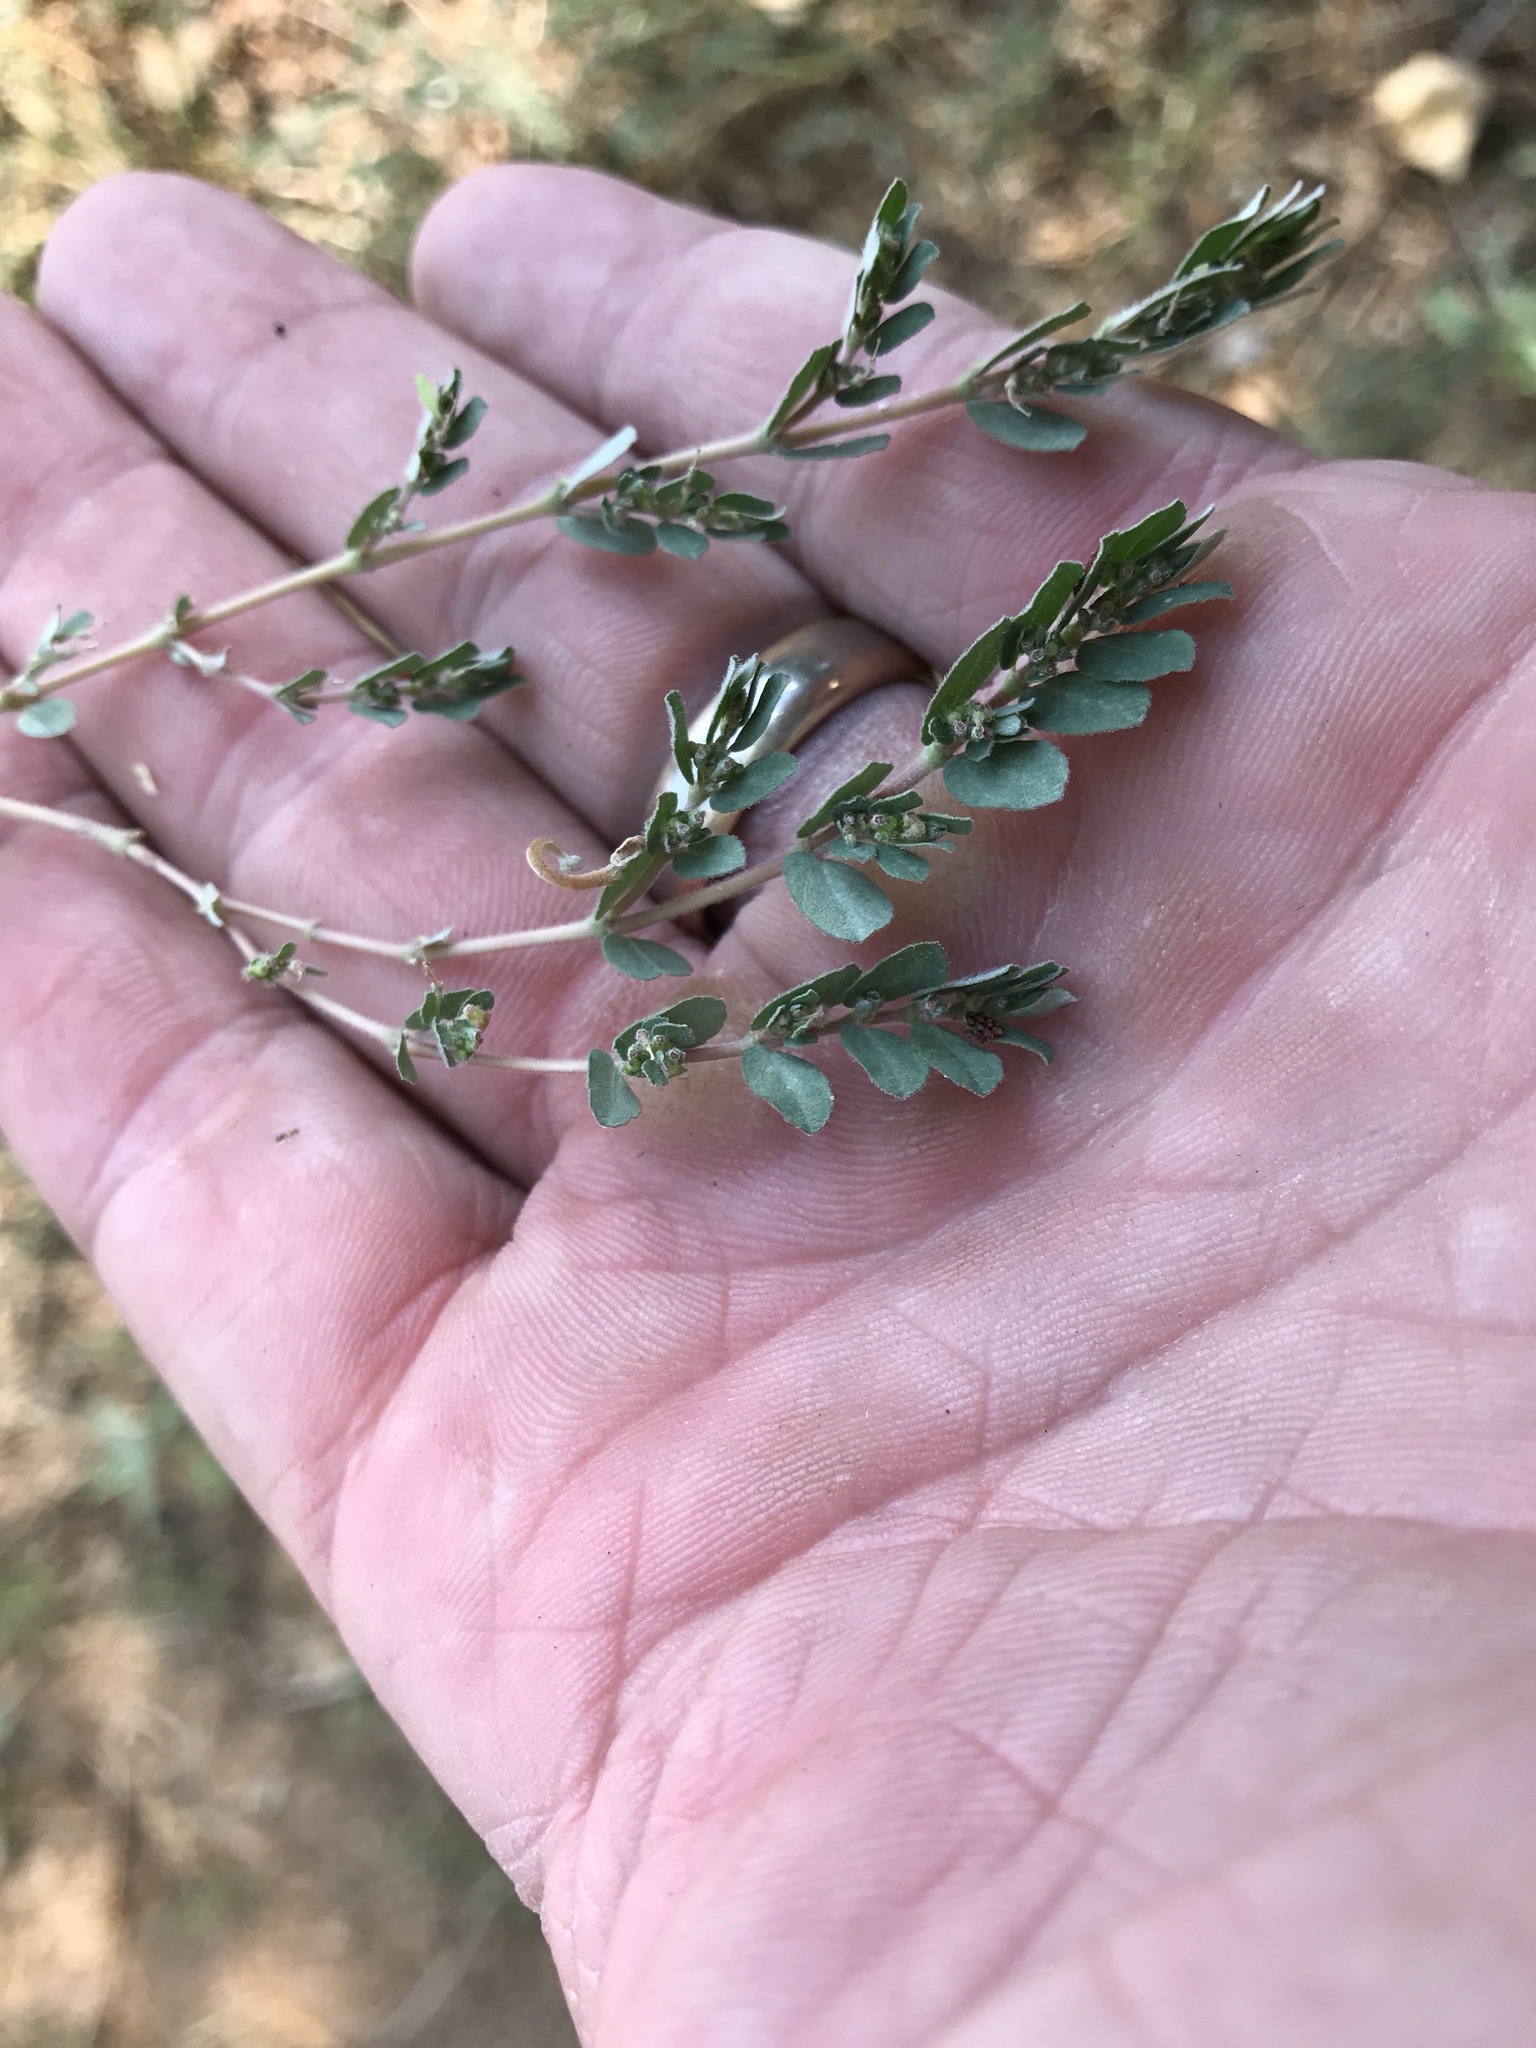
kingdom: Plantae
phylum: Tracheophyta
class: Magnoliopsida
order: Malpighiales
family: Euphorbiaceae
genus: Euphorbia
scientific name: Euphorbia prostrata
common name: Prostrate sandmat
